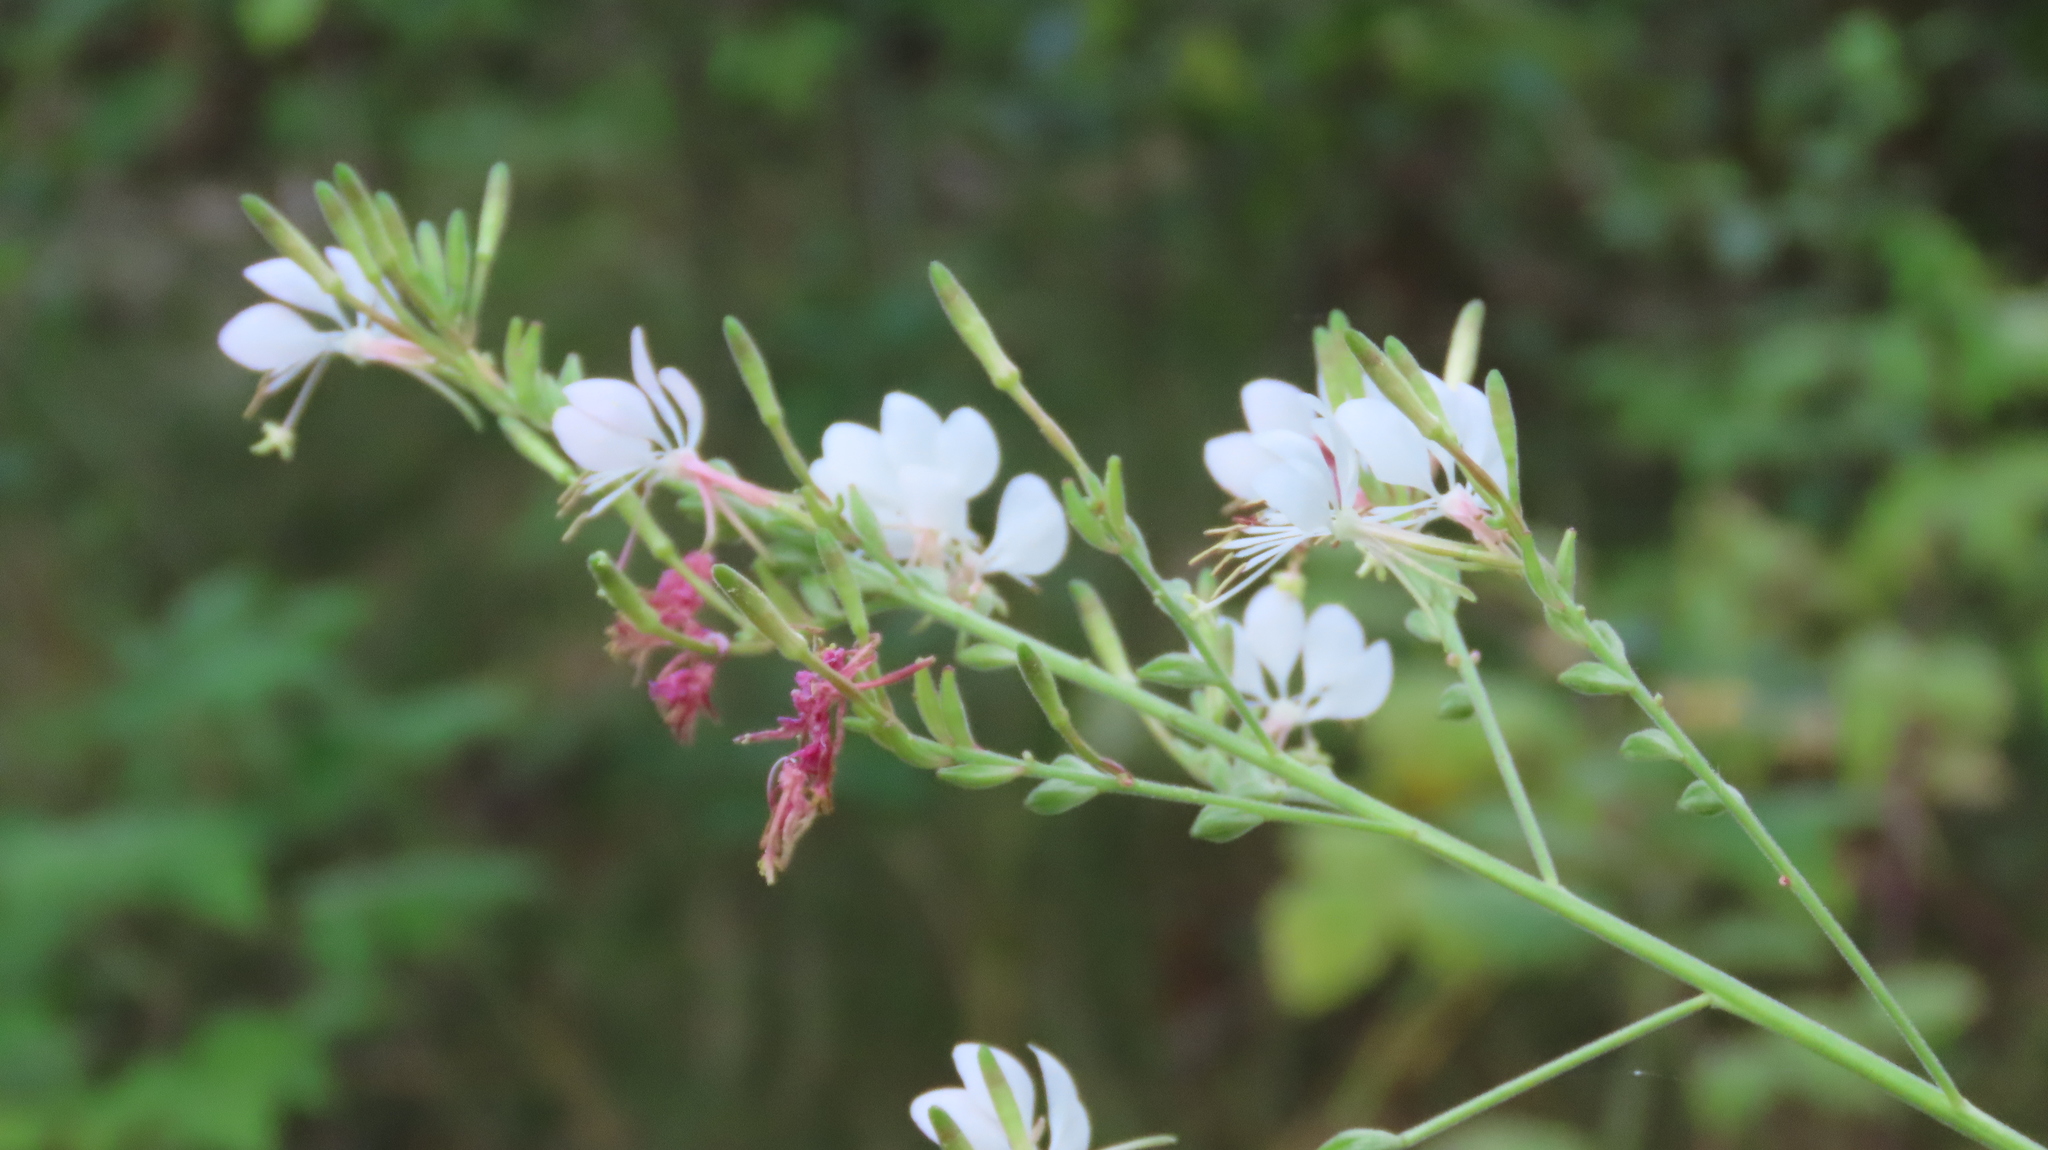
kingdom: Plantae
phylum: Tracheophyta
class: Magnoliopsida
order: Myrtales
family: Onagraceae
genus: Oenothera
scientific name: Oenothera gaura
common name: Biennial beeblossom
